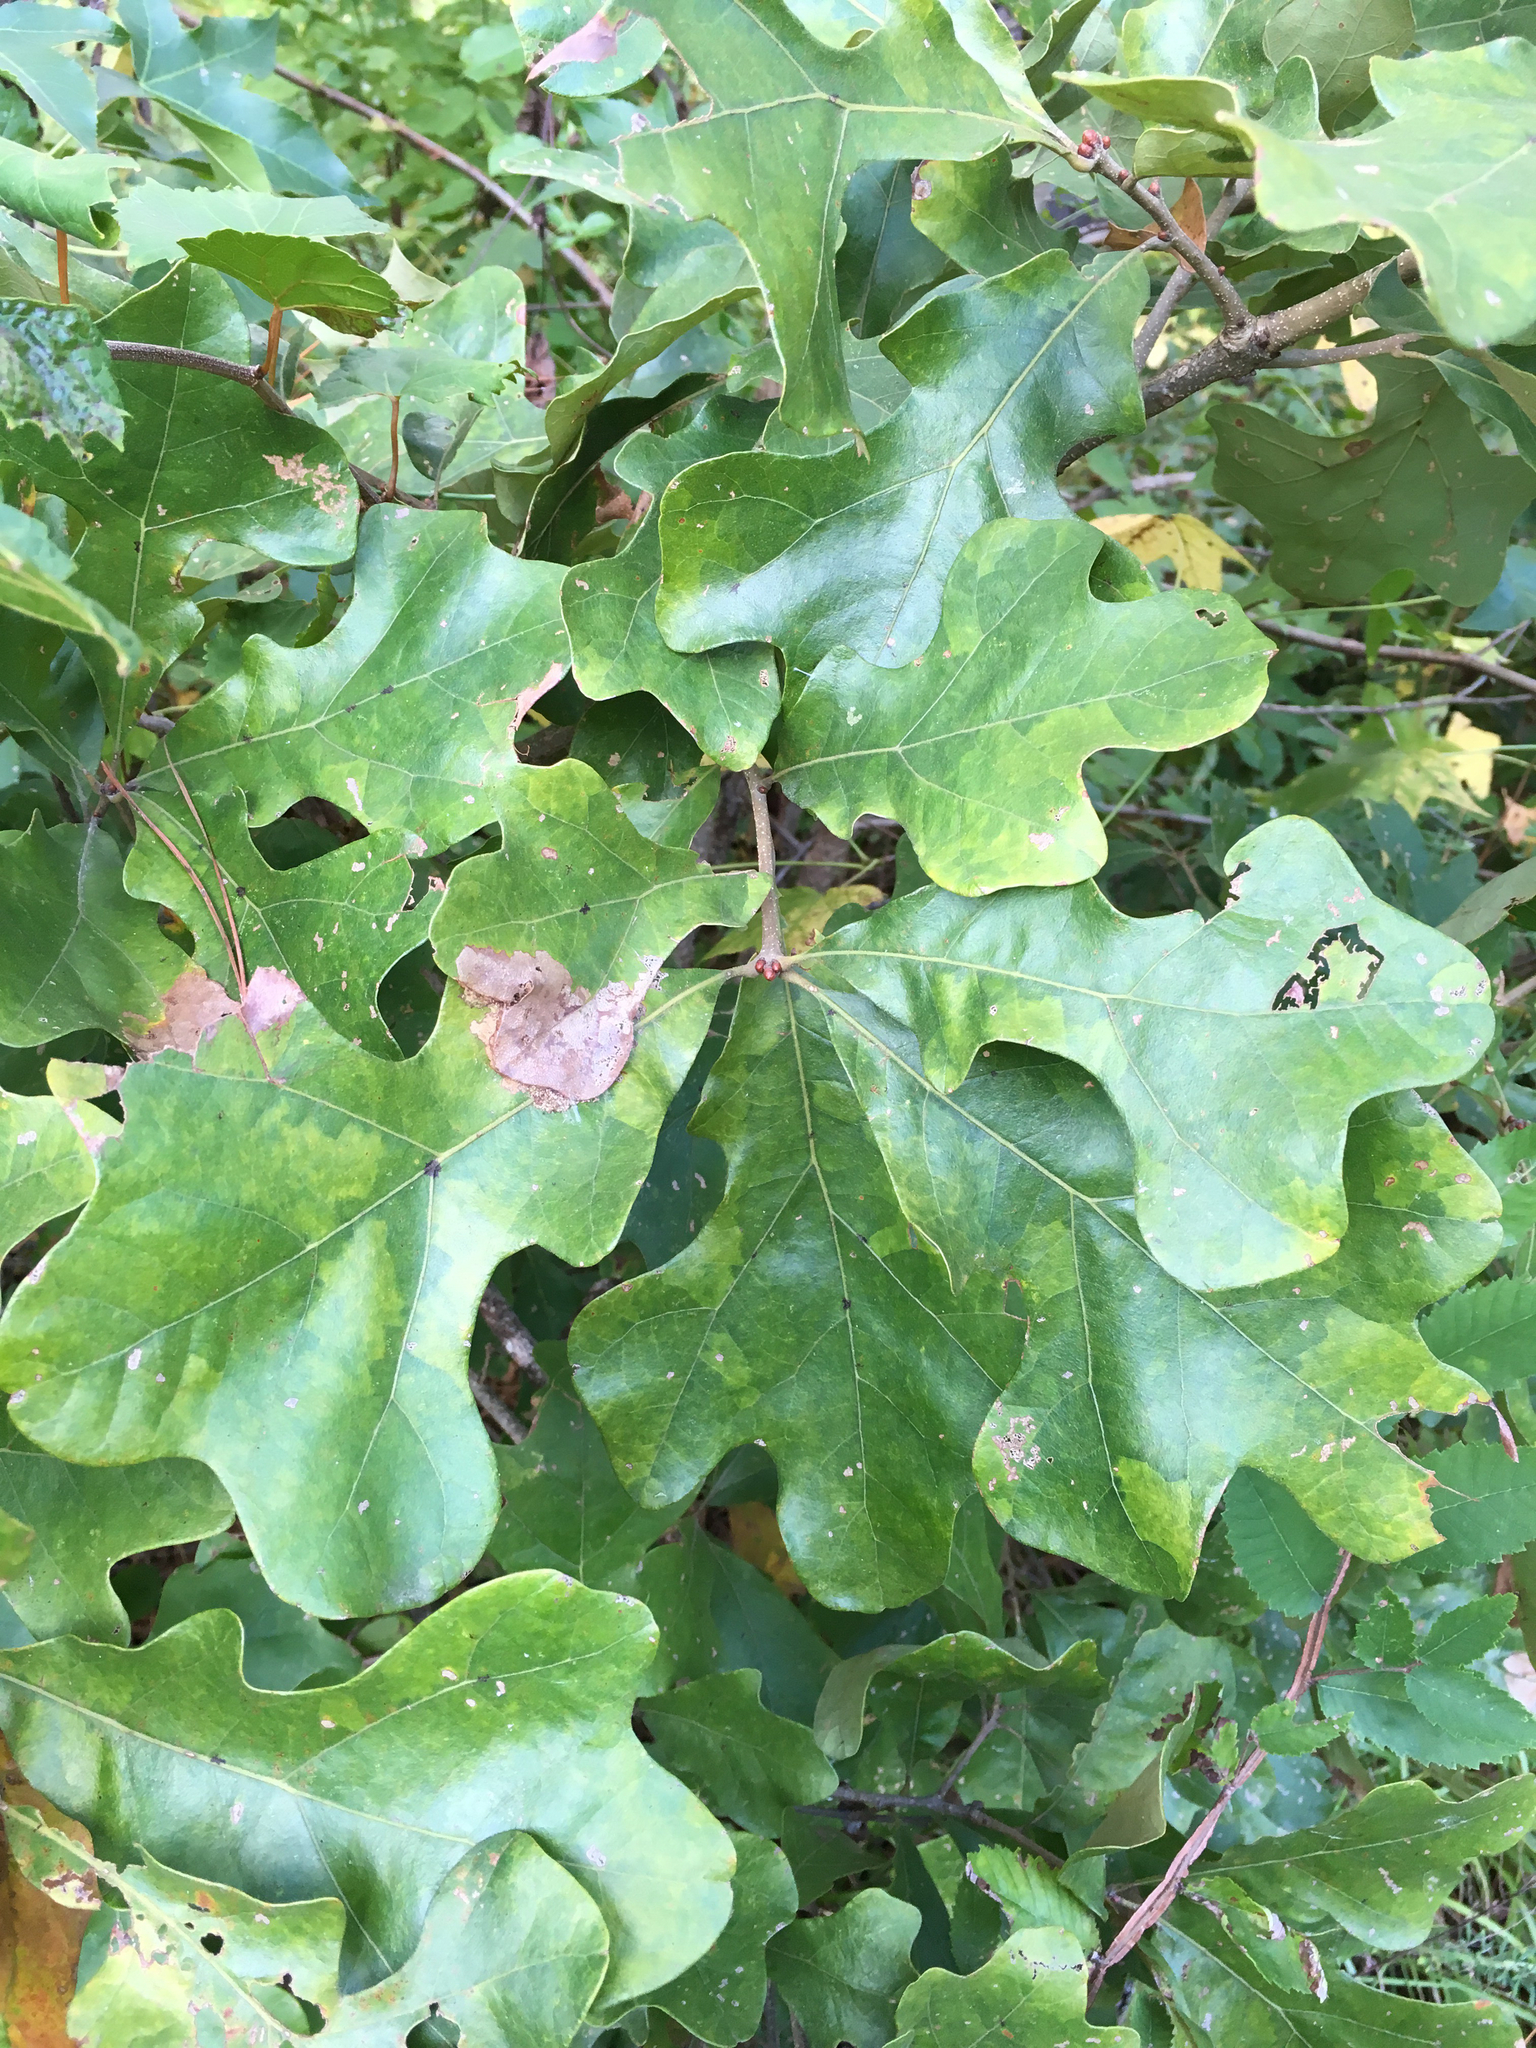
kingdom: Plantae
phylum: Tracheophyta
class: Magnoliopsida
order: Fagales
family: Fagaceae
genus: Quercus
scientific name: Quercus stellata
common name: Post oak
